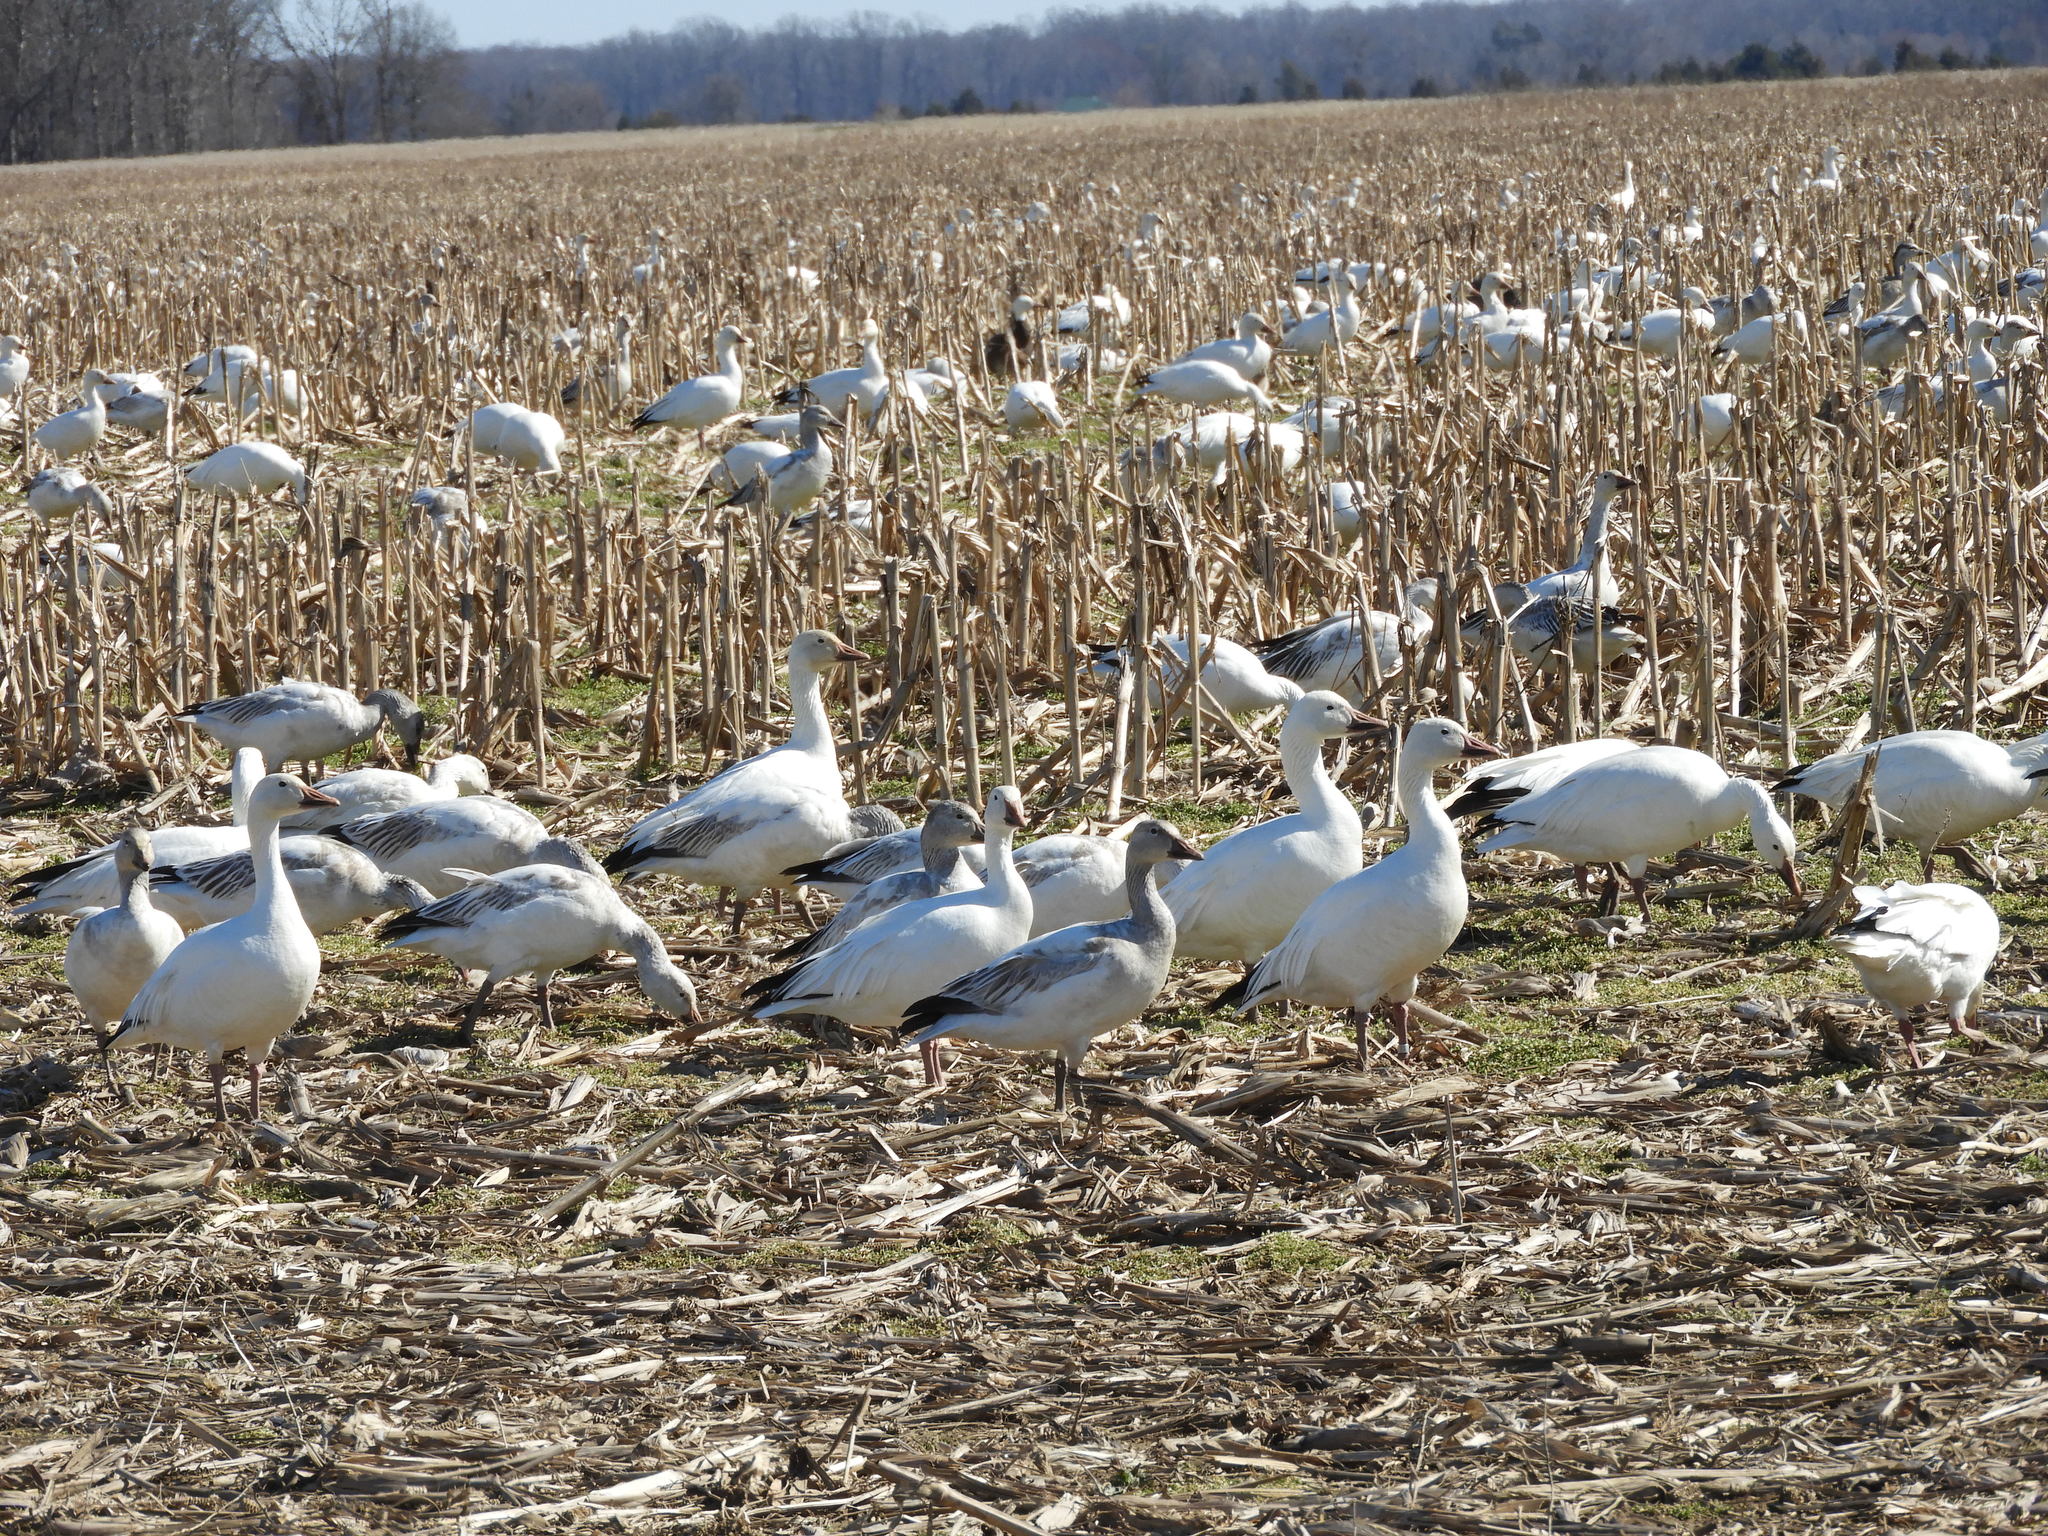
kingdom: Animalia
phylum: Chordata
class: Aves
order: Anseriformes
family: Anatidae
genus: Anser
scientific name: Anser caerulescens
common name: Snow goose
